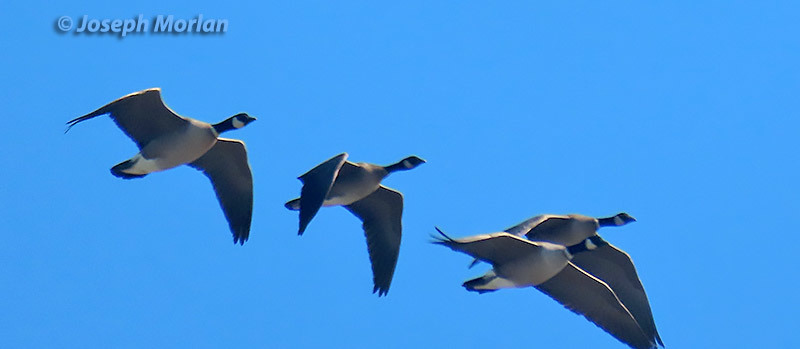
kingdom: Animalia
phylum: Chordata
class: Aves
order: Anseriformes
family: Anatidae
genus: Branta
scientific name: Branta hutchinsii
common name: Cackling goose
